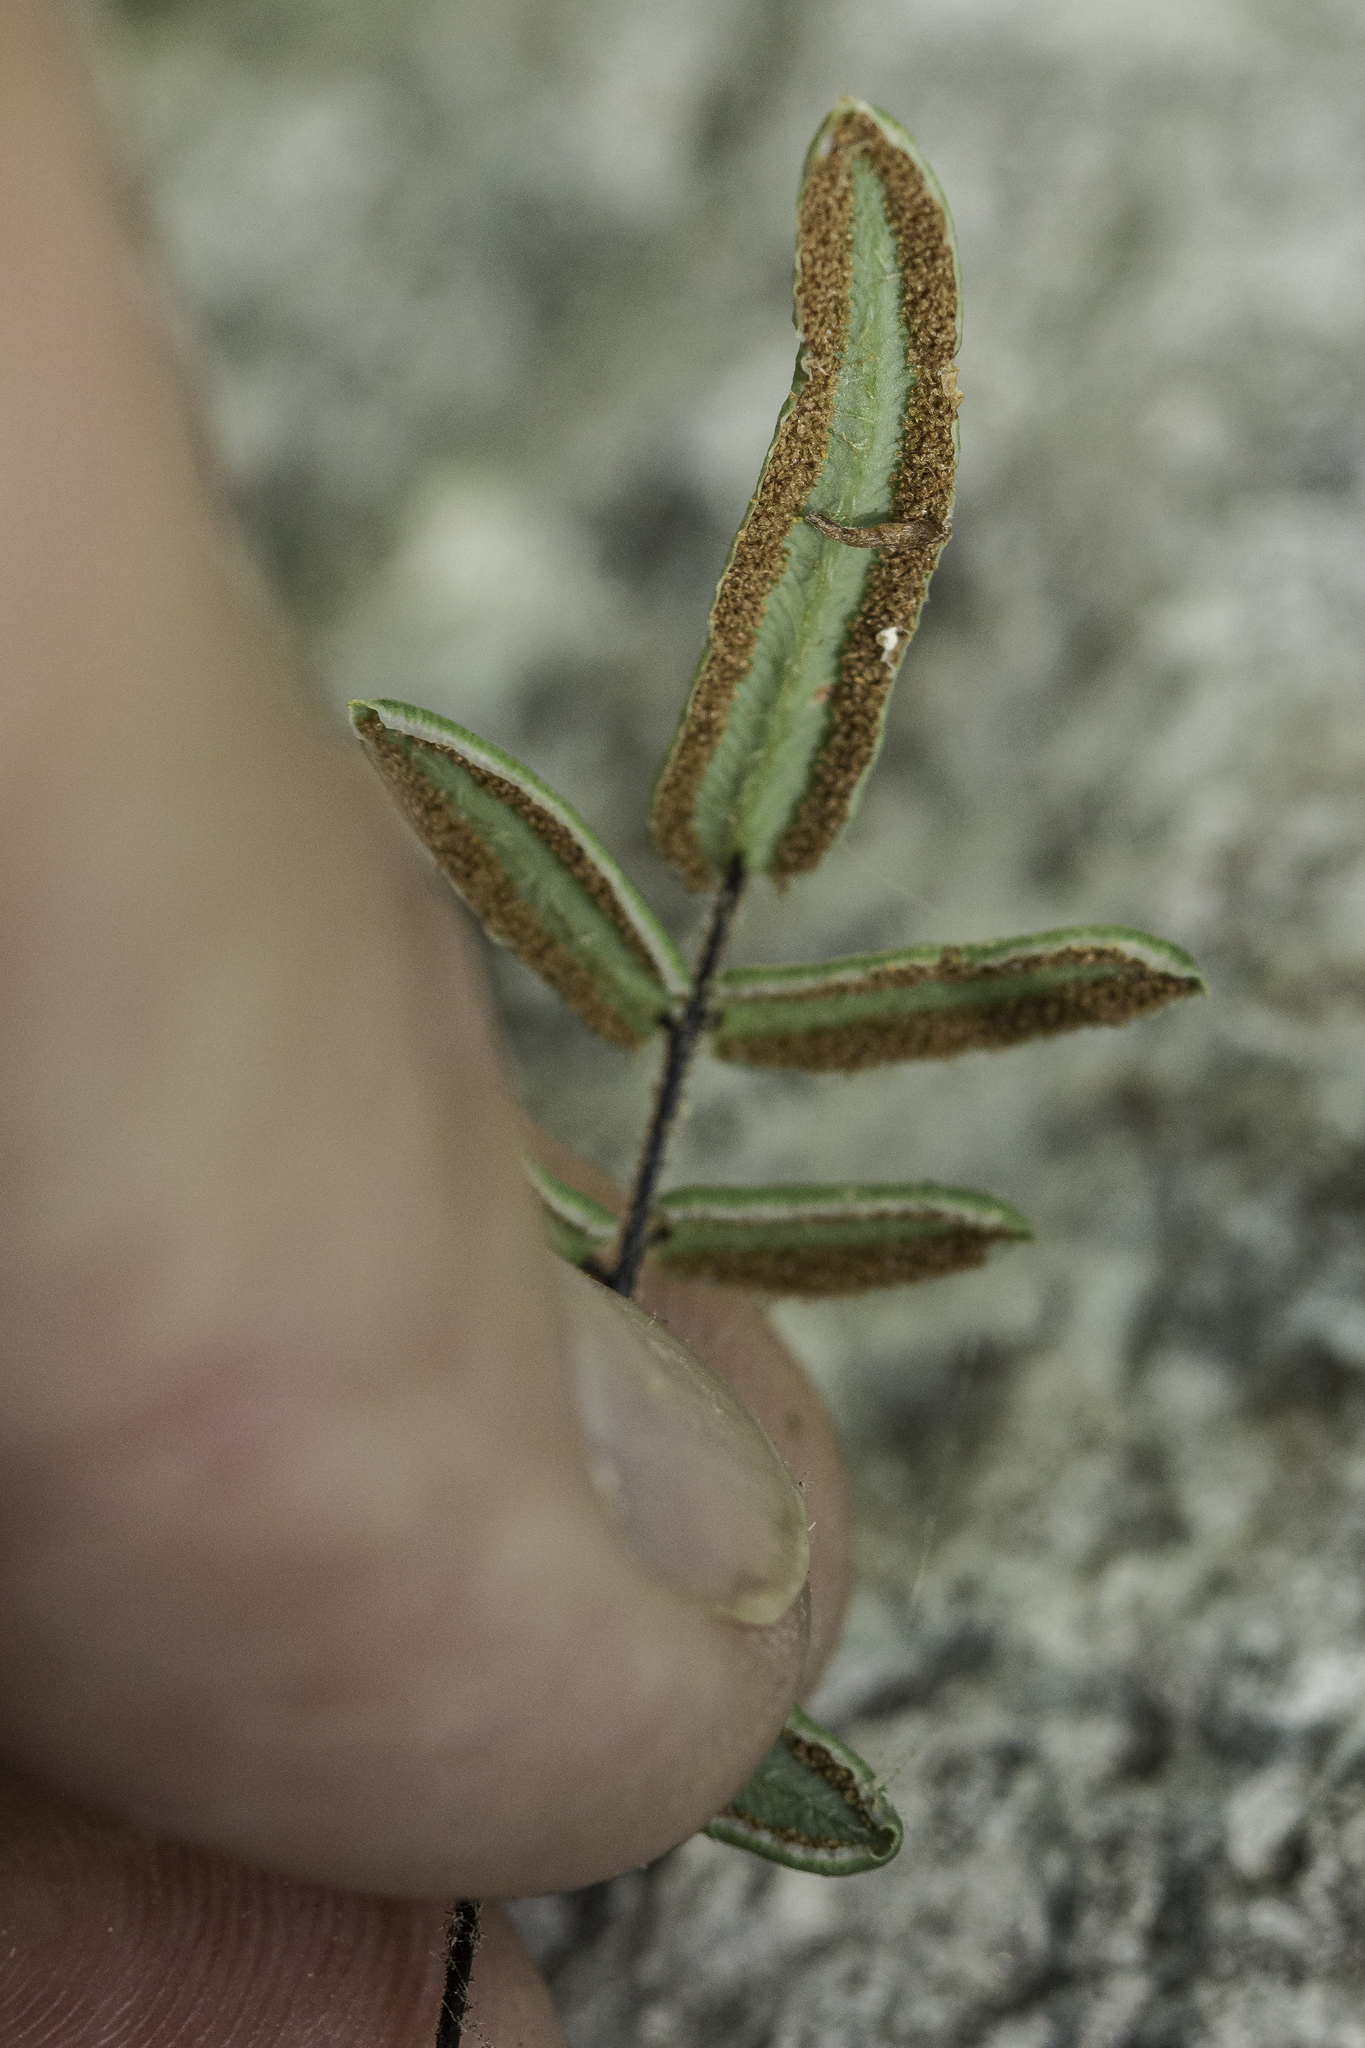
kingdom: Plantae
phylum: Tracheophyta
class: Polypodiopsida
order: Polypodiales
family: Pteridaceae
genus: Pellaea
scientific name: Pellaea atropurpurea
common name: Hairy cliffbrake
